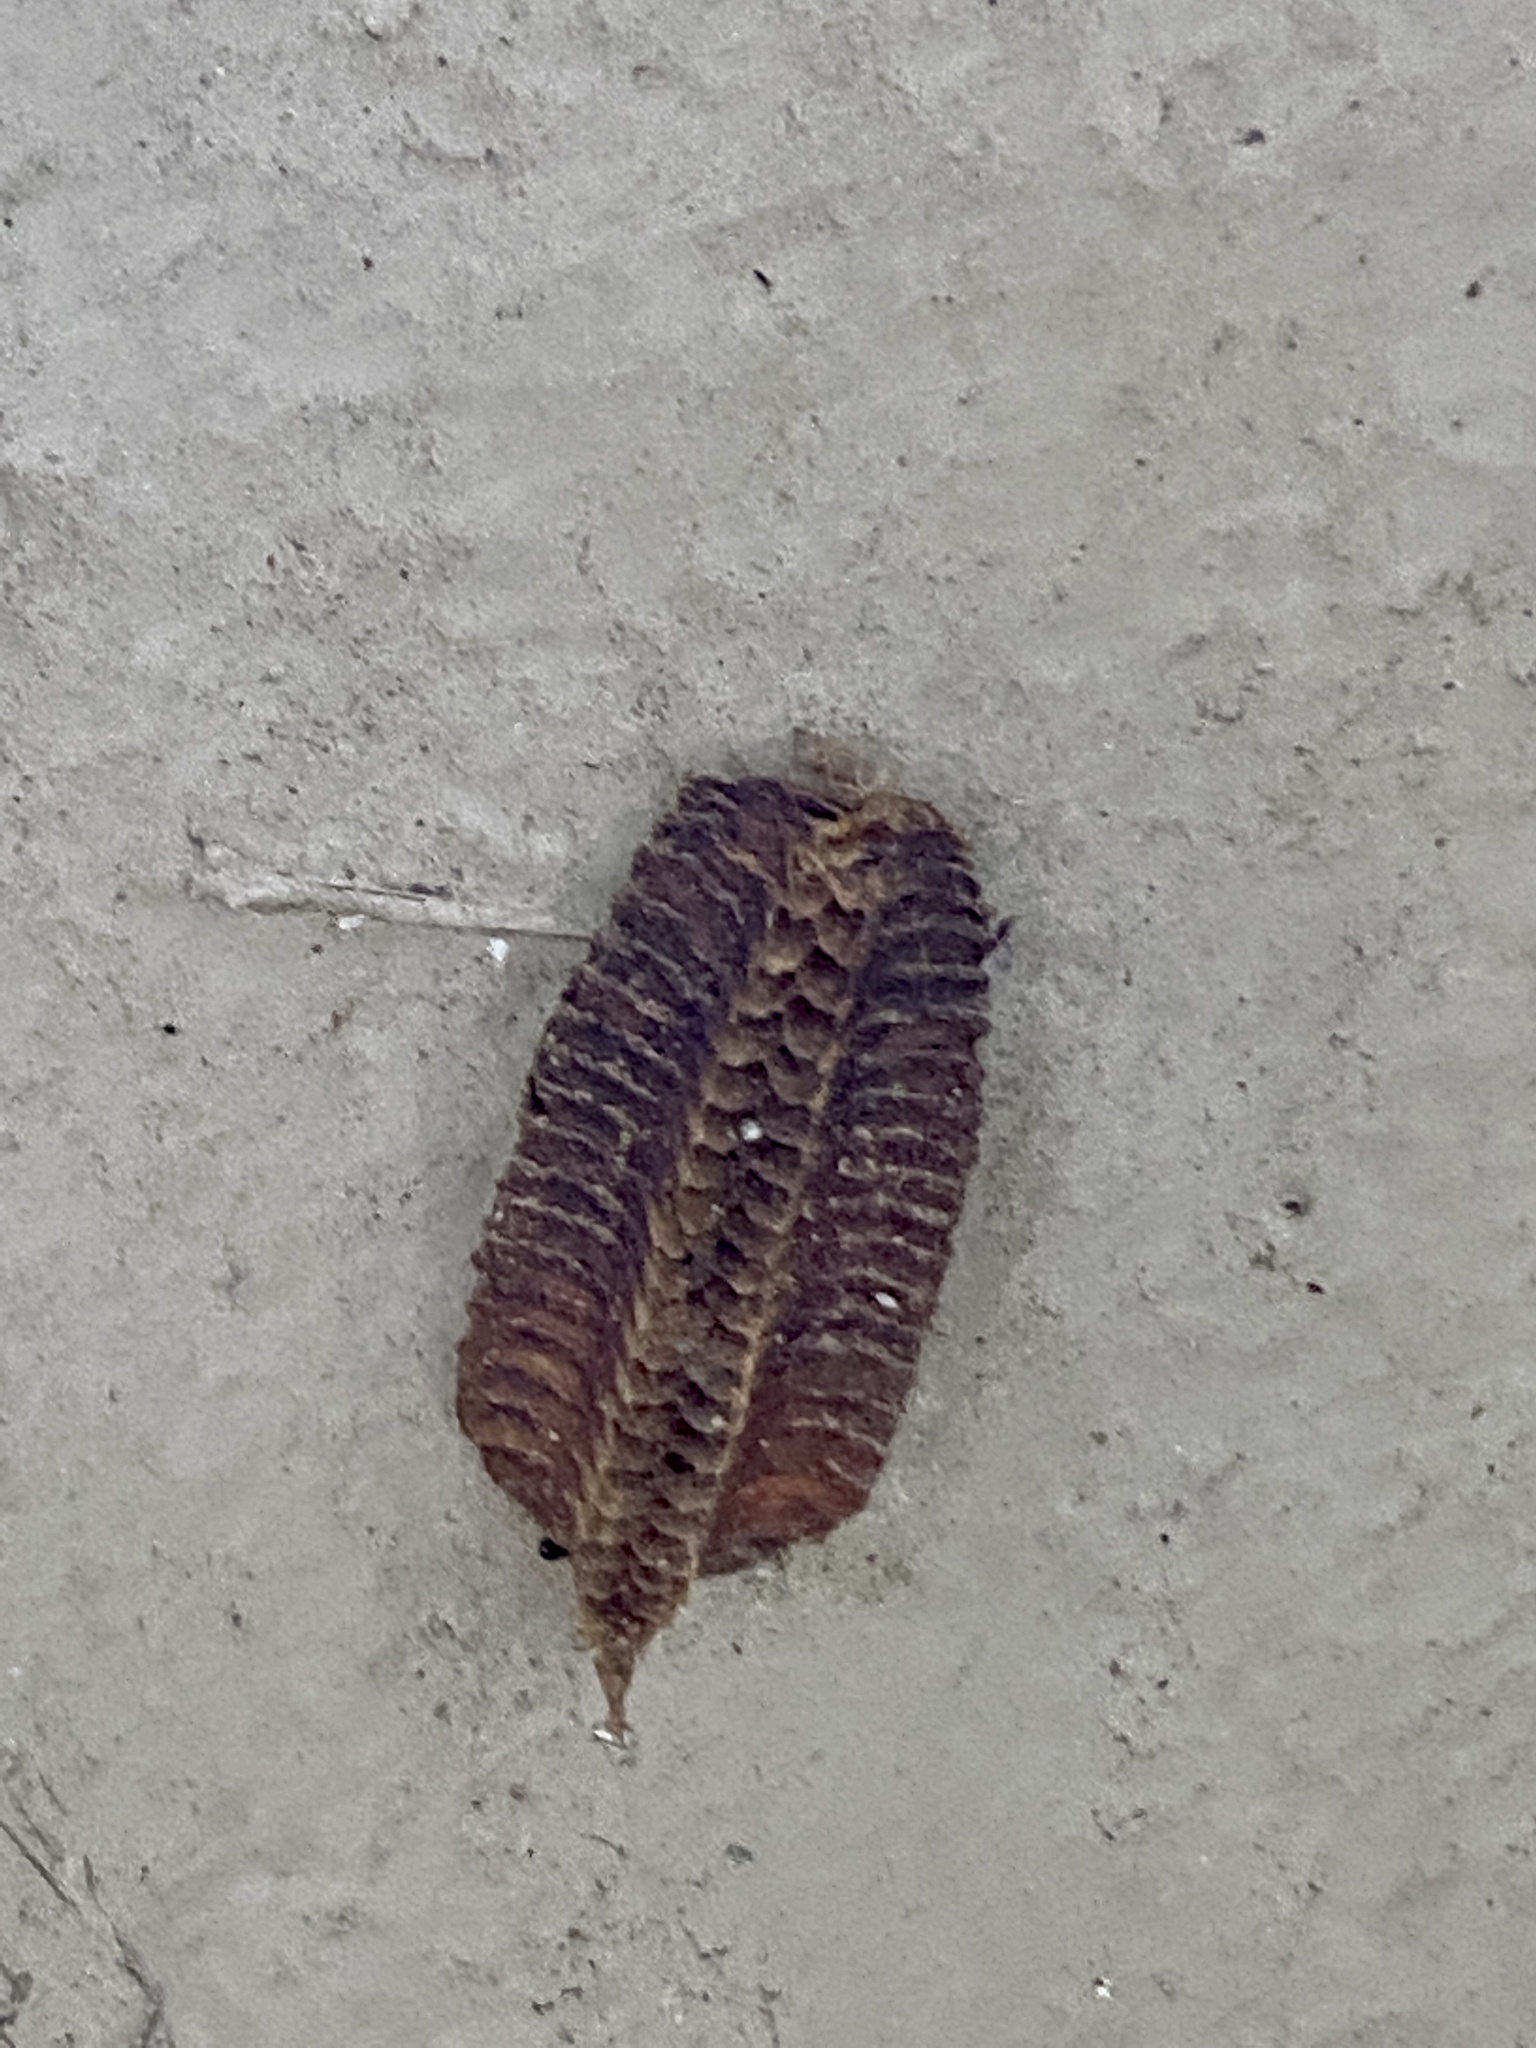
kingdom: Animalia
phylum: Arthropoda
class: Insecta
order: Mantodea
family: Miomantidae
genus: Miomantis
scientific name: Miomantis caffra
